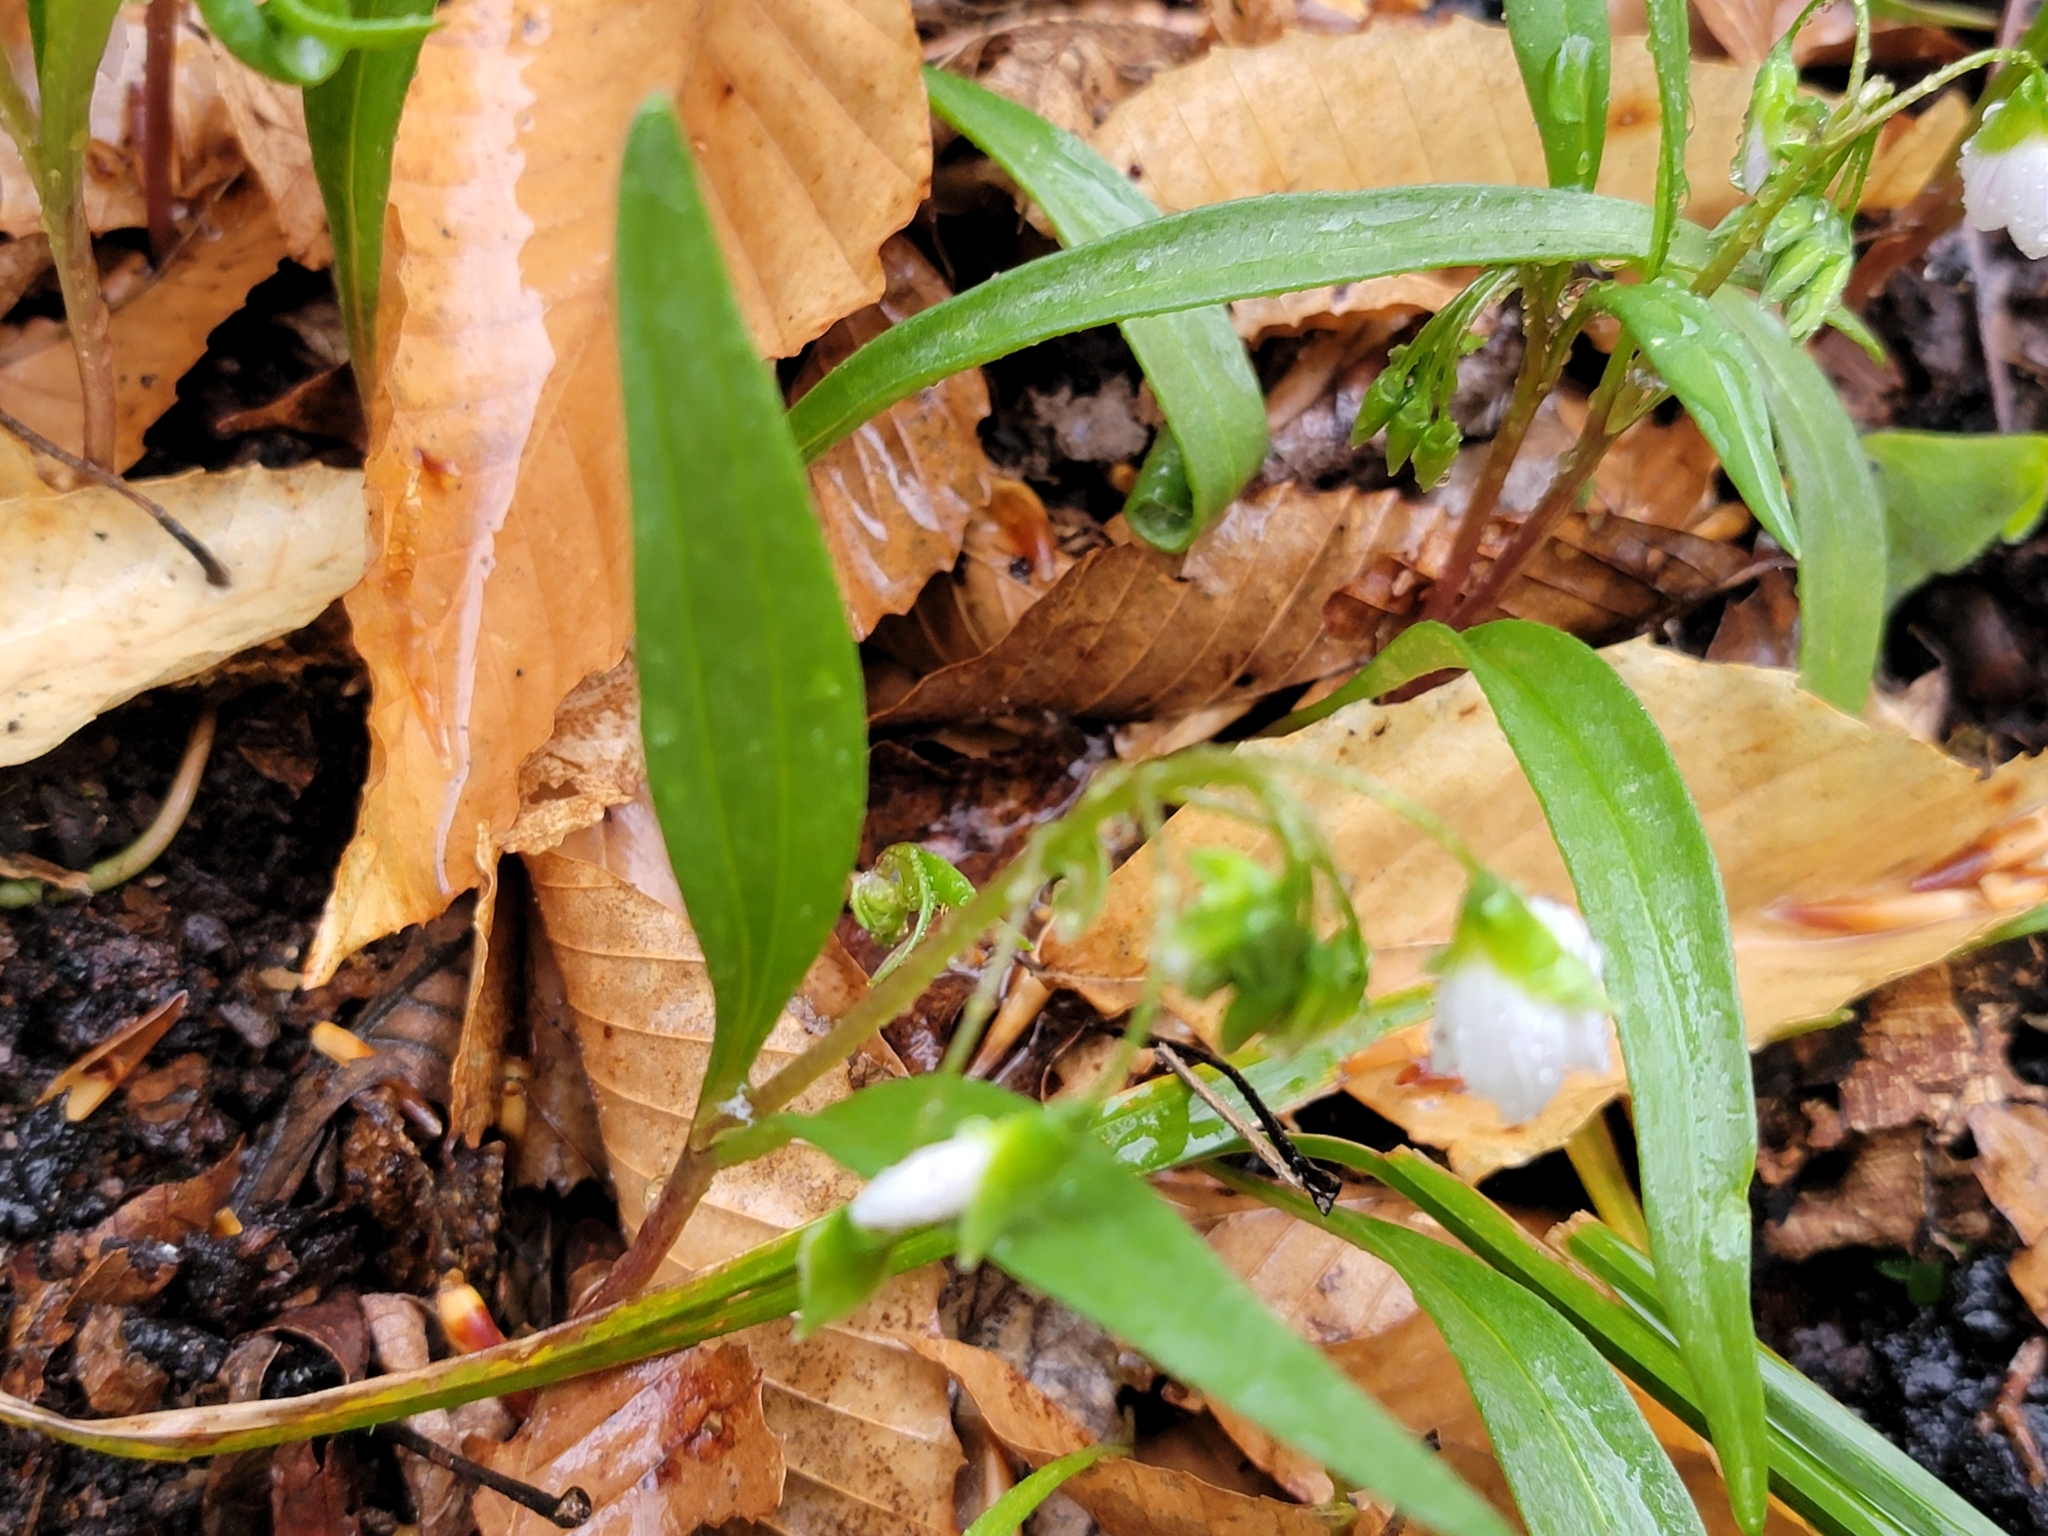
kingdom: Plantae
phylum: Tracheophyta
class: Magnoliopsida
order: Caryophyllales
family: Montiaceae
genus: Claytonia
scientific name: Claytonia virginica
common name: Virginia springbeauty
